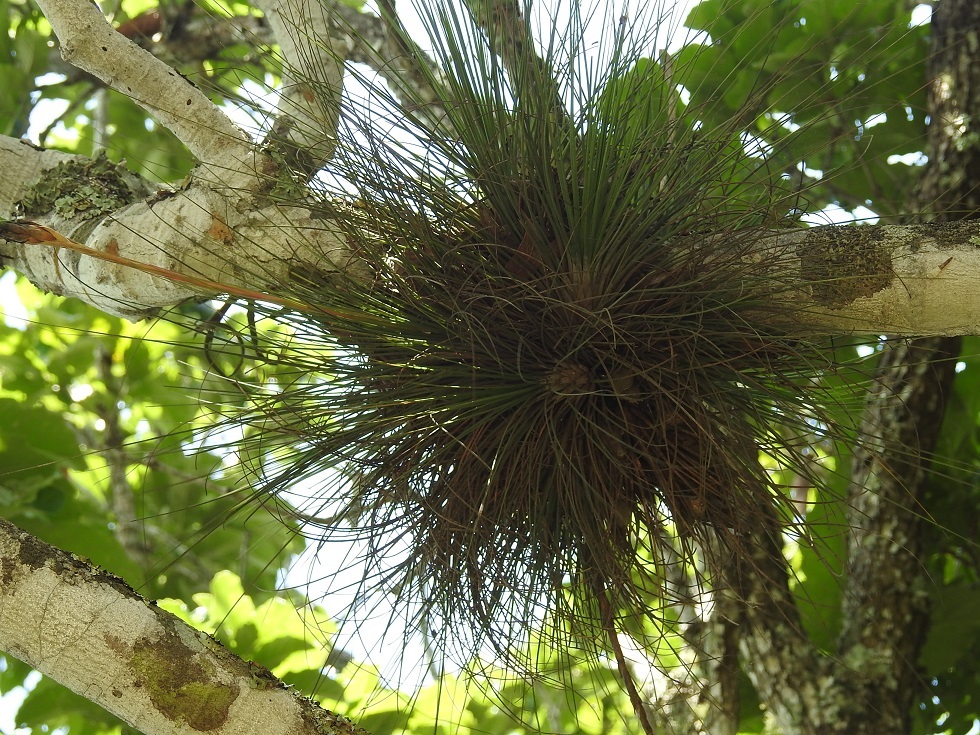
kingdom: Plantae
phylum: Tracheophyta
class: Liliopsida
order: Poales
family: Bromeliaceae
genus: Tillandsia
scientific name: Tillandsia juncea
